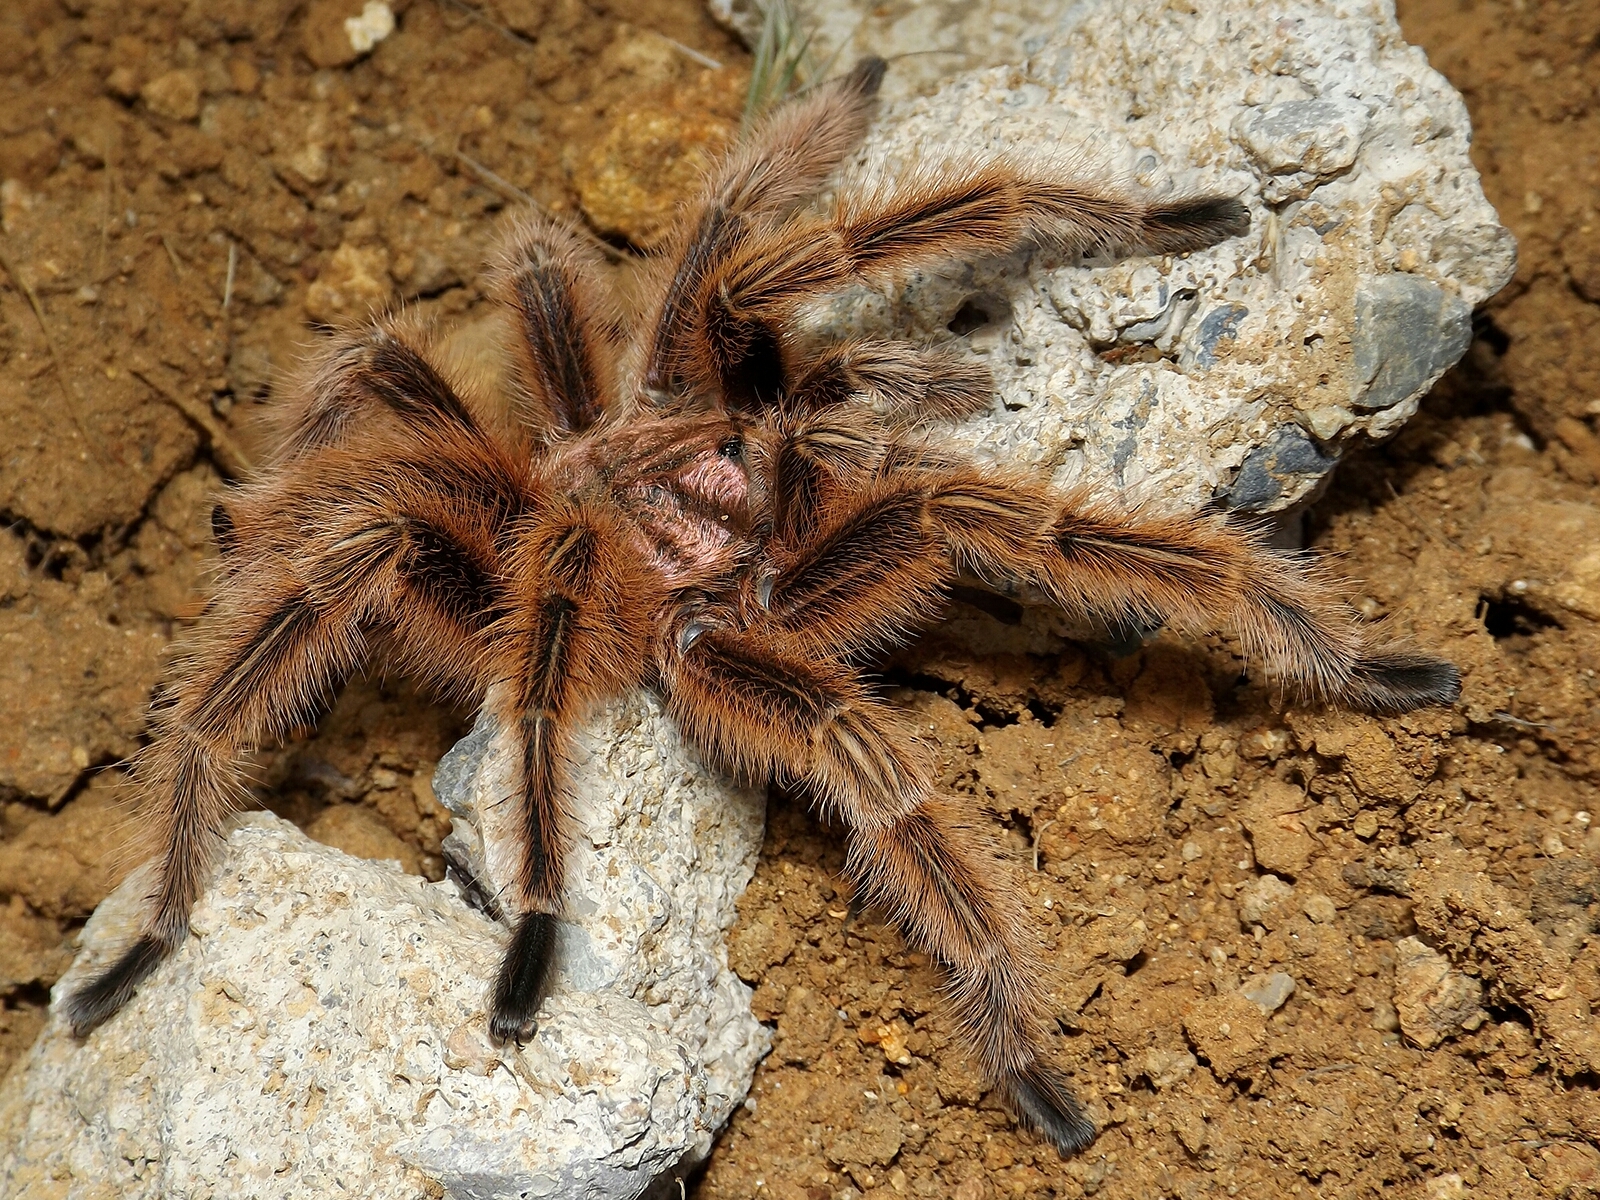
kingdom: Animalia
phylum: Arthropoda
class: Arachnida
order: Araneae
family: Theraphosidae
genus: Grammostola
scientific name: Grammostola rosea
